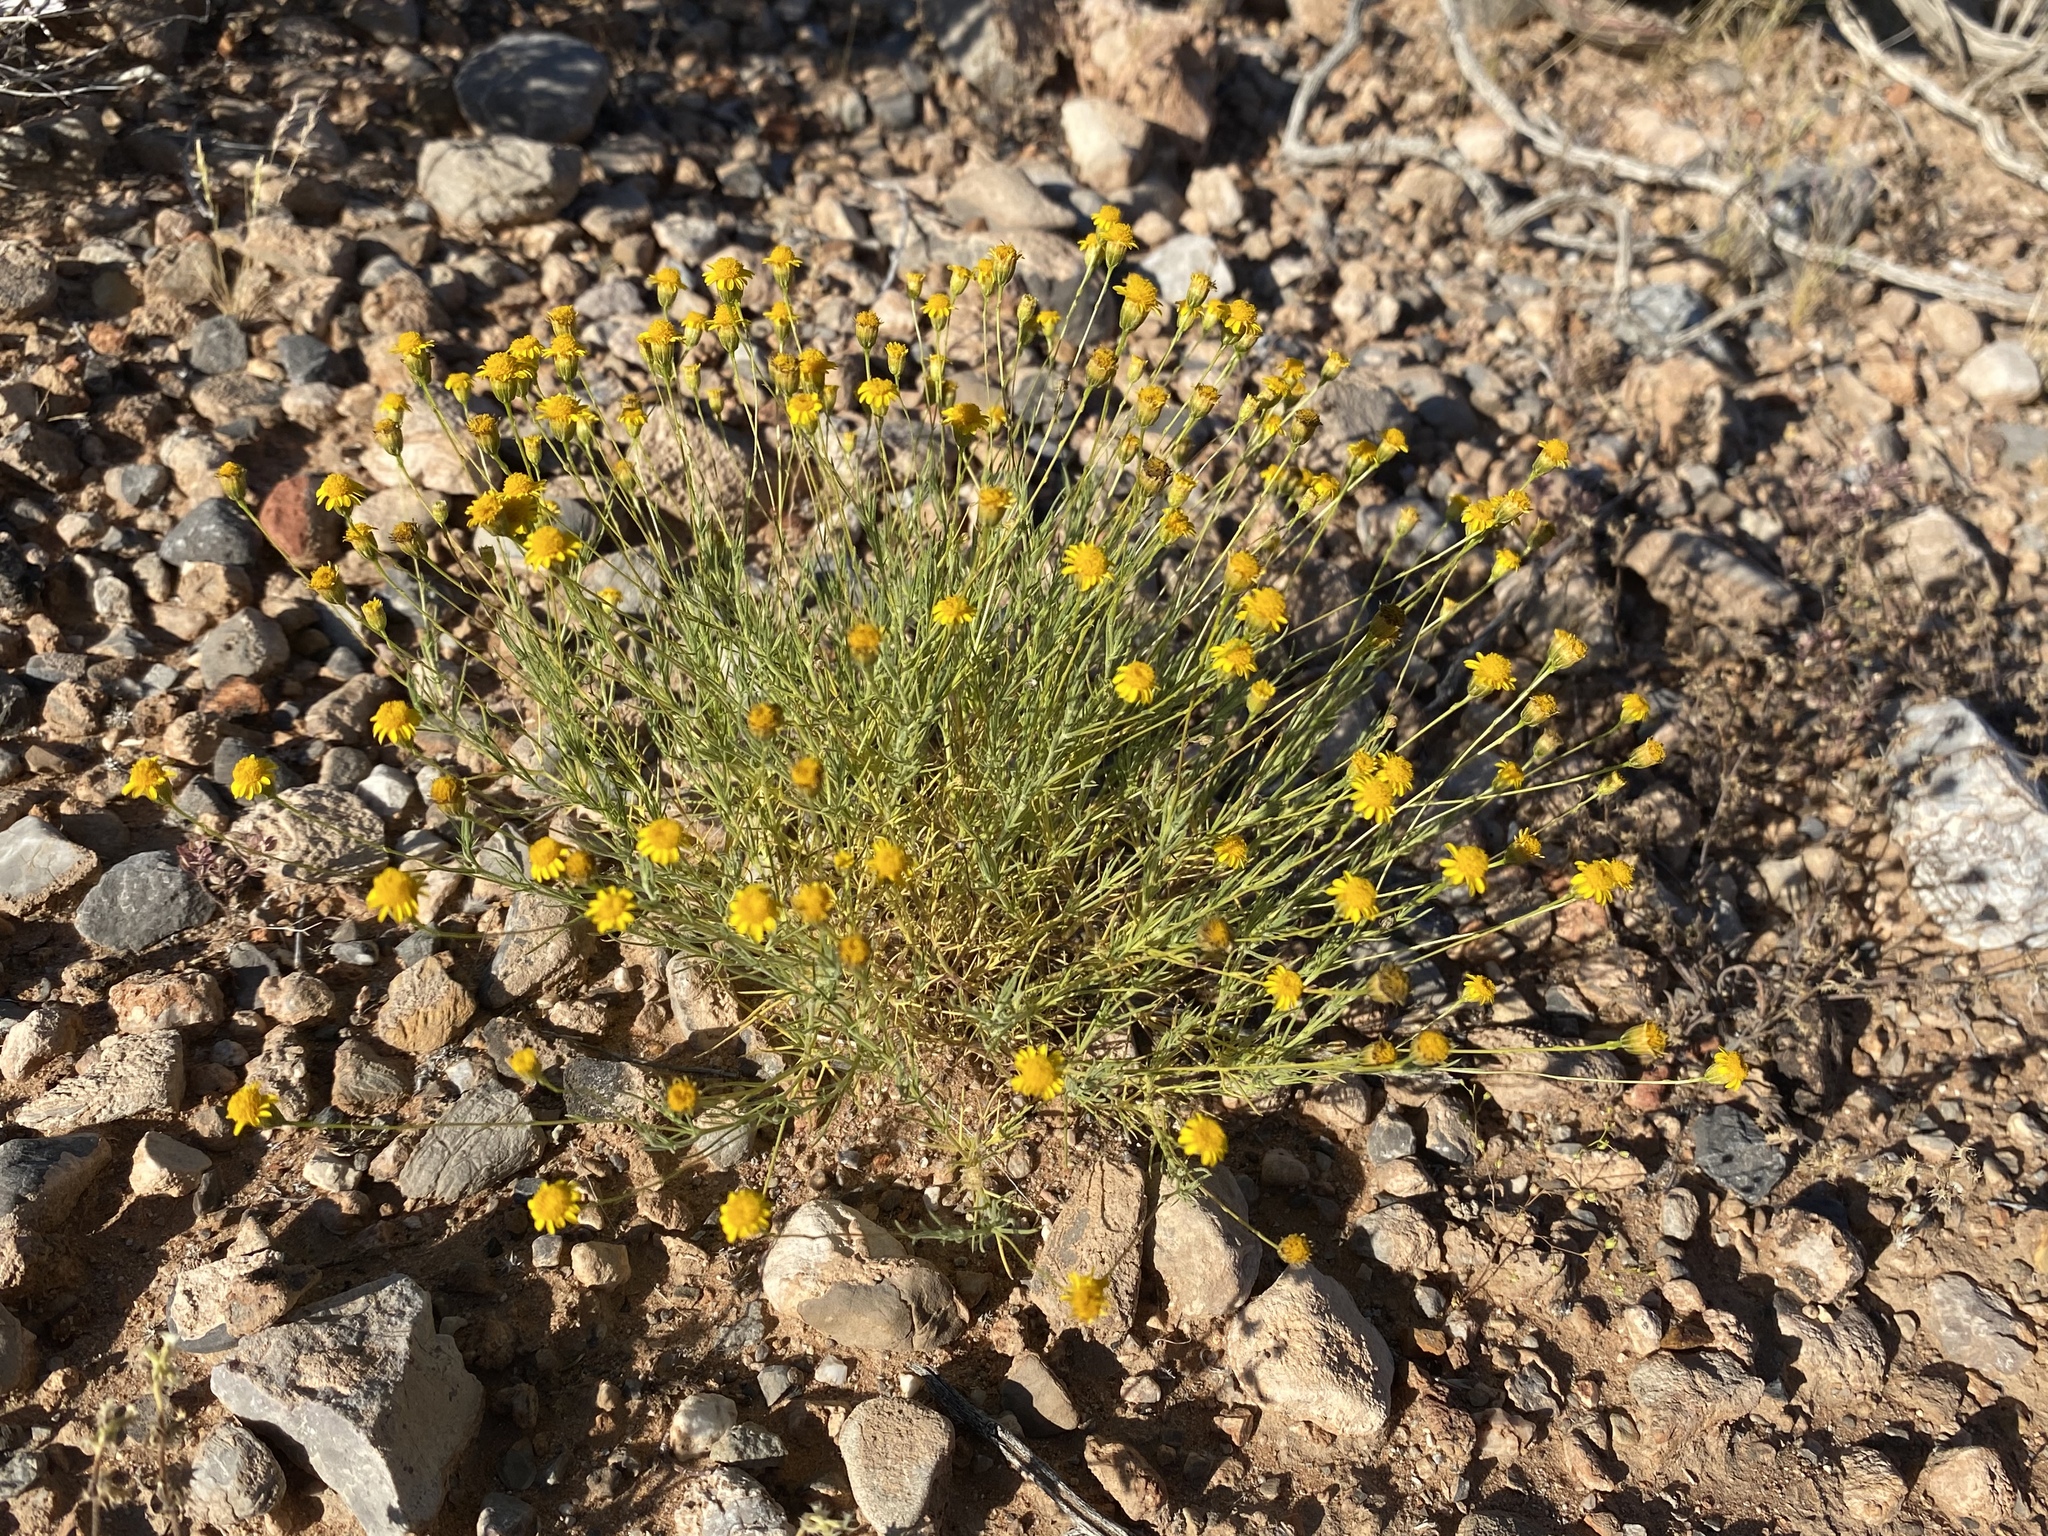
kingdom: Plantae
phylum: Tracheophyta
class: Magnoliopsida
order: Asterales
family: Asteraceae
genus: Thymophylla
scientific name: Thymophylla pentachaeta
